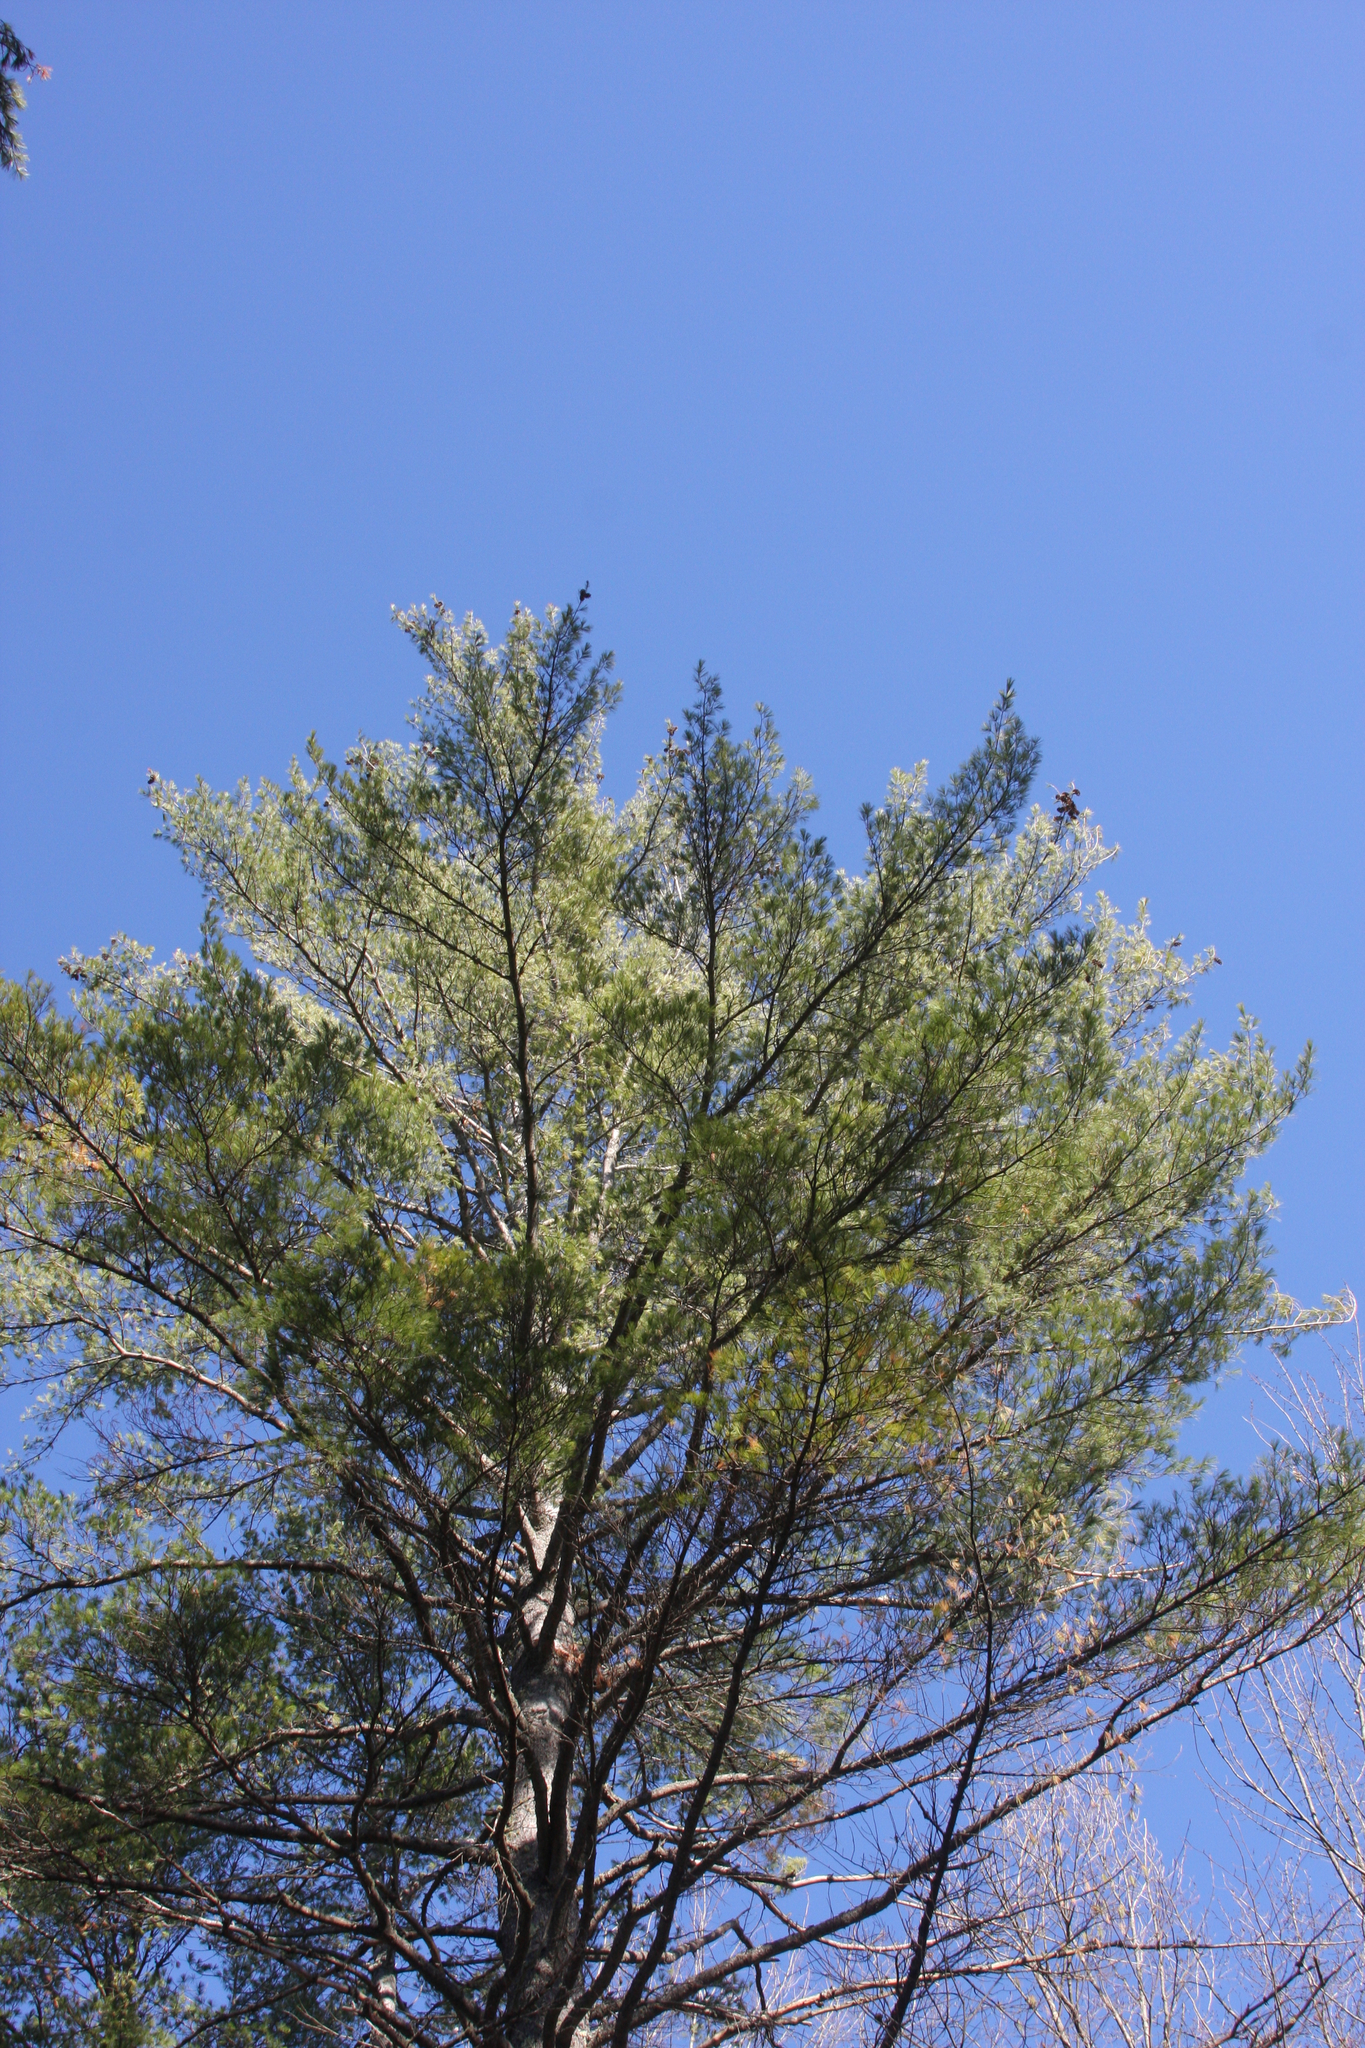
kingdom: Plantae
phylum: Tracheophyta
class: Pinopsida
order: Pinales
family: Pinaceae
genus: Pinus
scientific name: Pinus strobus
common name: Weymouth pine
